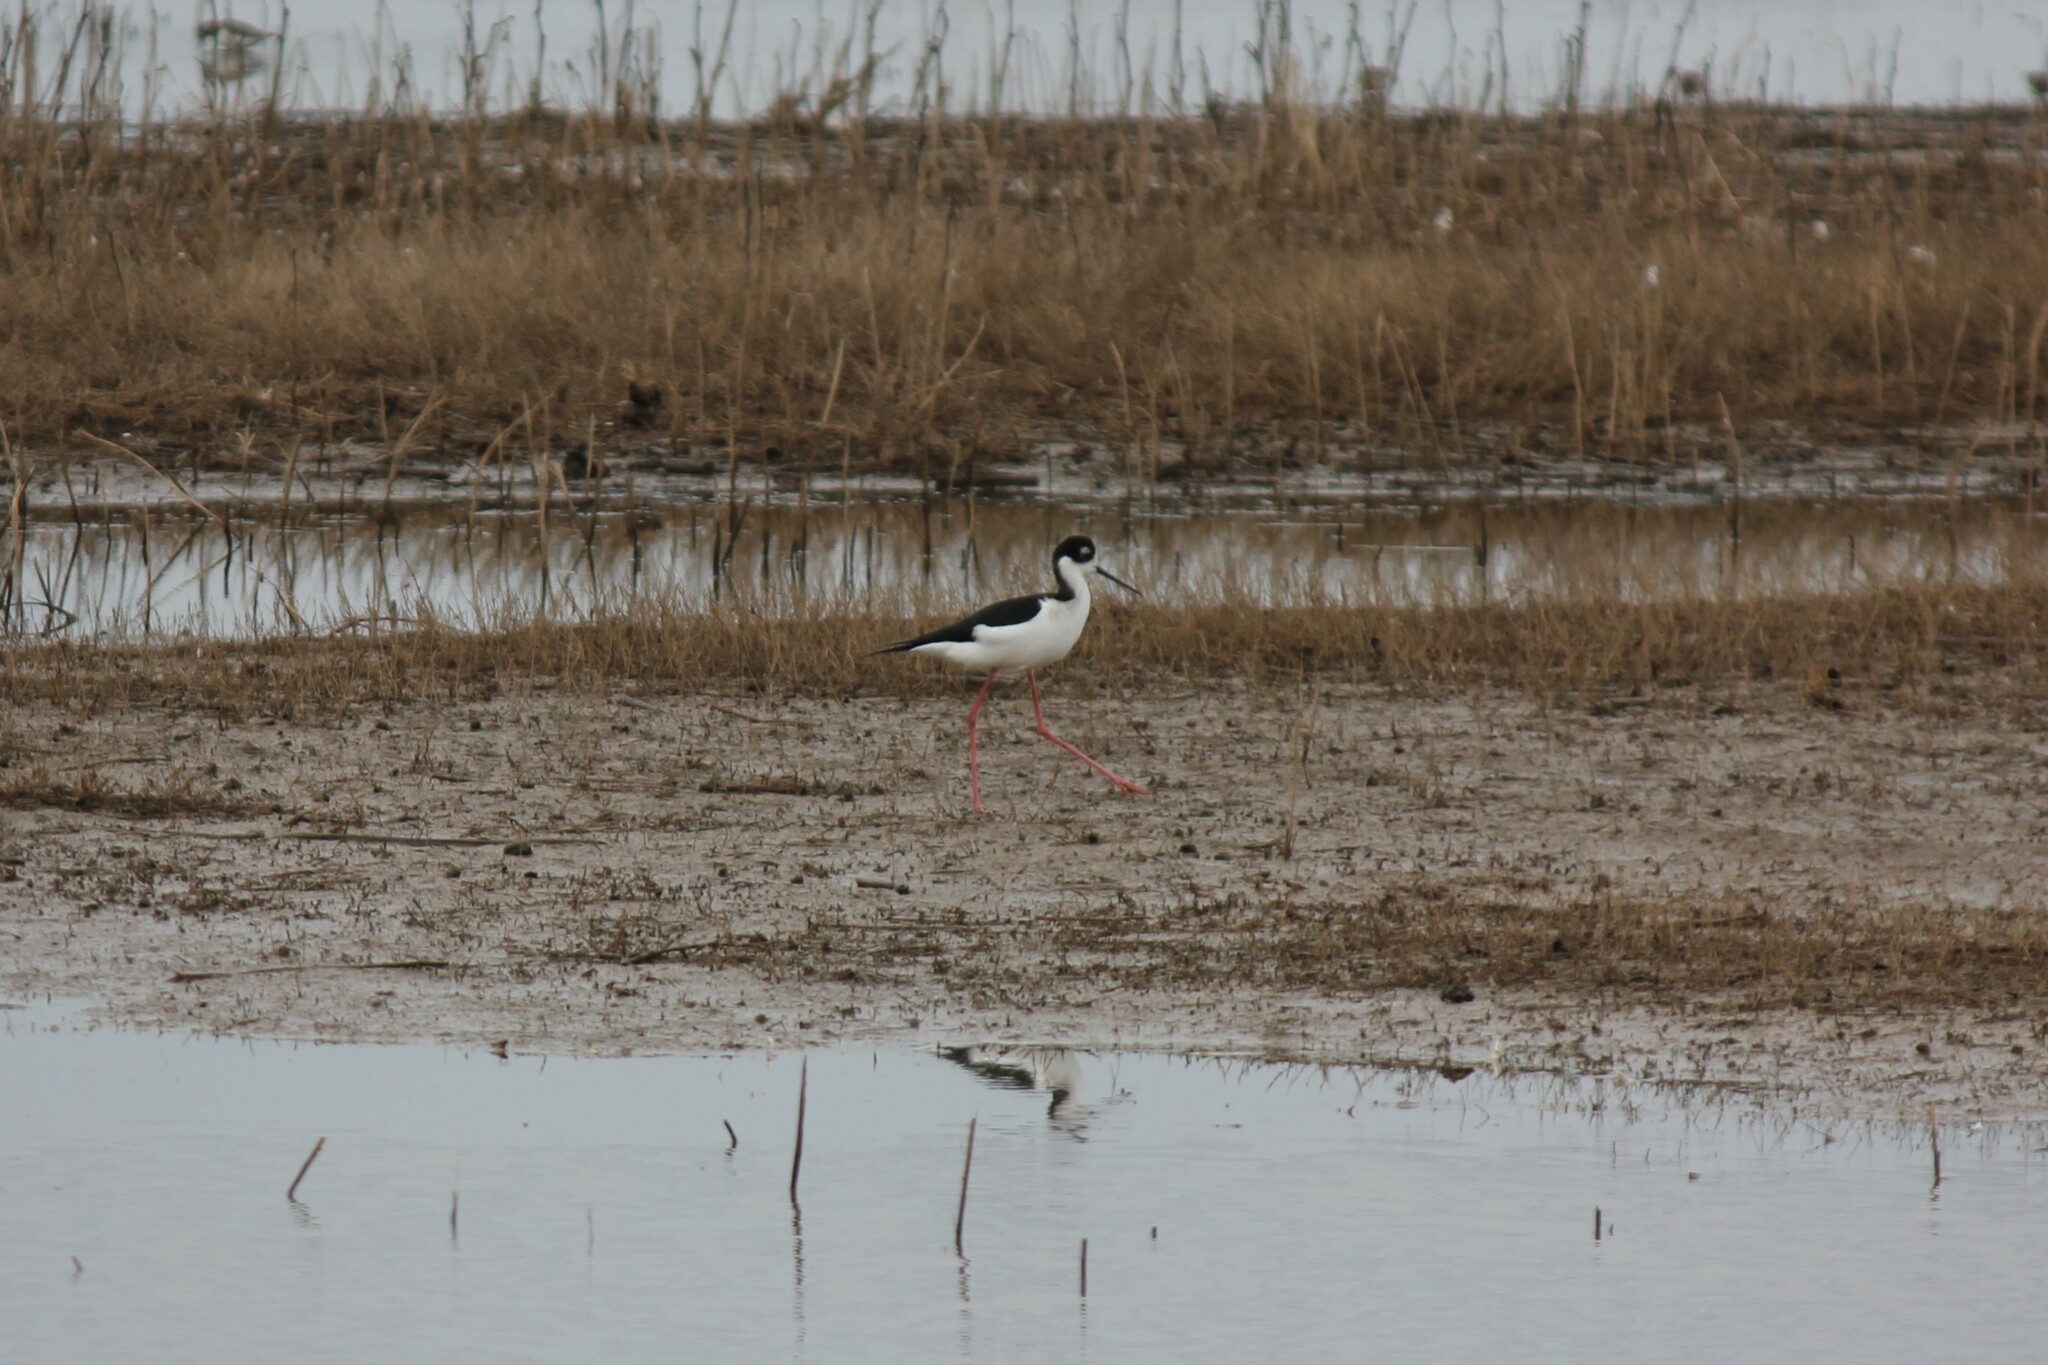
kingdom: Animalia
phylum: Chordata
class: Aves
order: Charadriiformes
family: Recurvirostridae
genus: Himantopus
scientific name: Himantopus mexicanus
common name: Black-necked stilt
